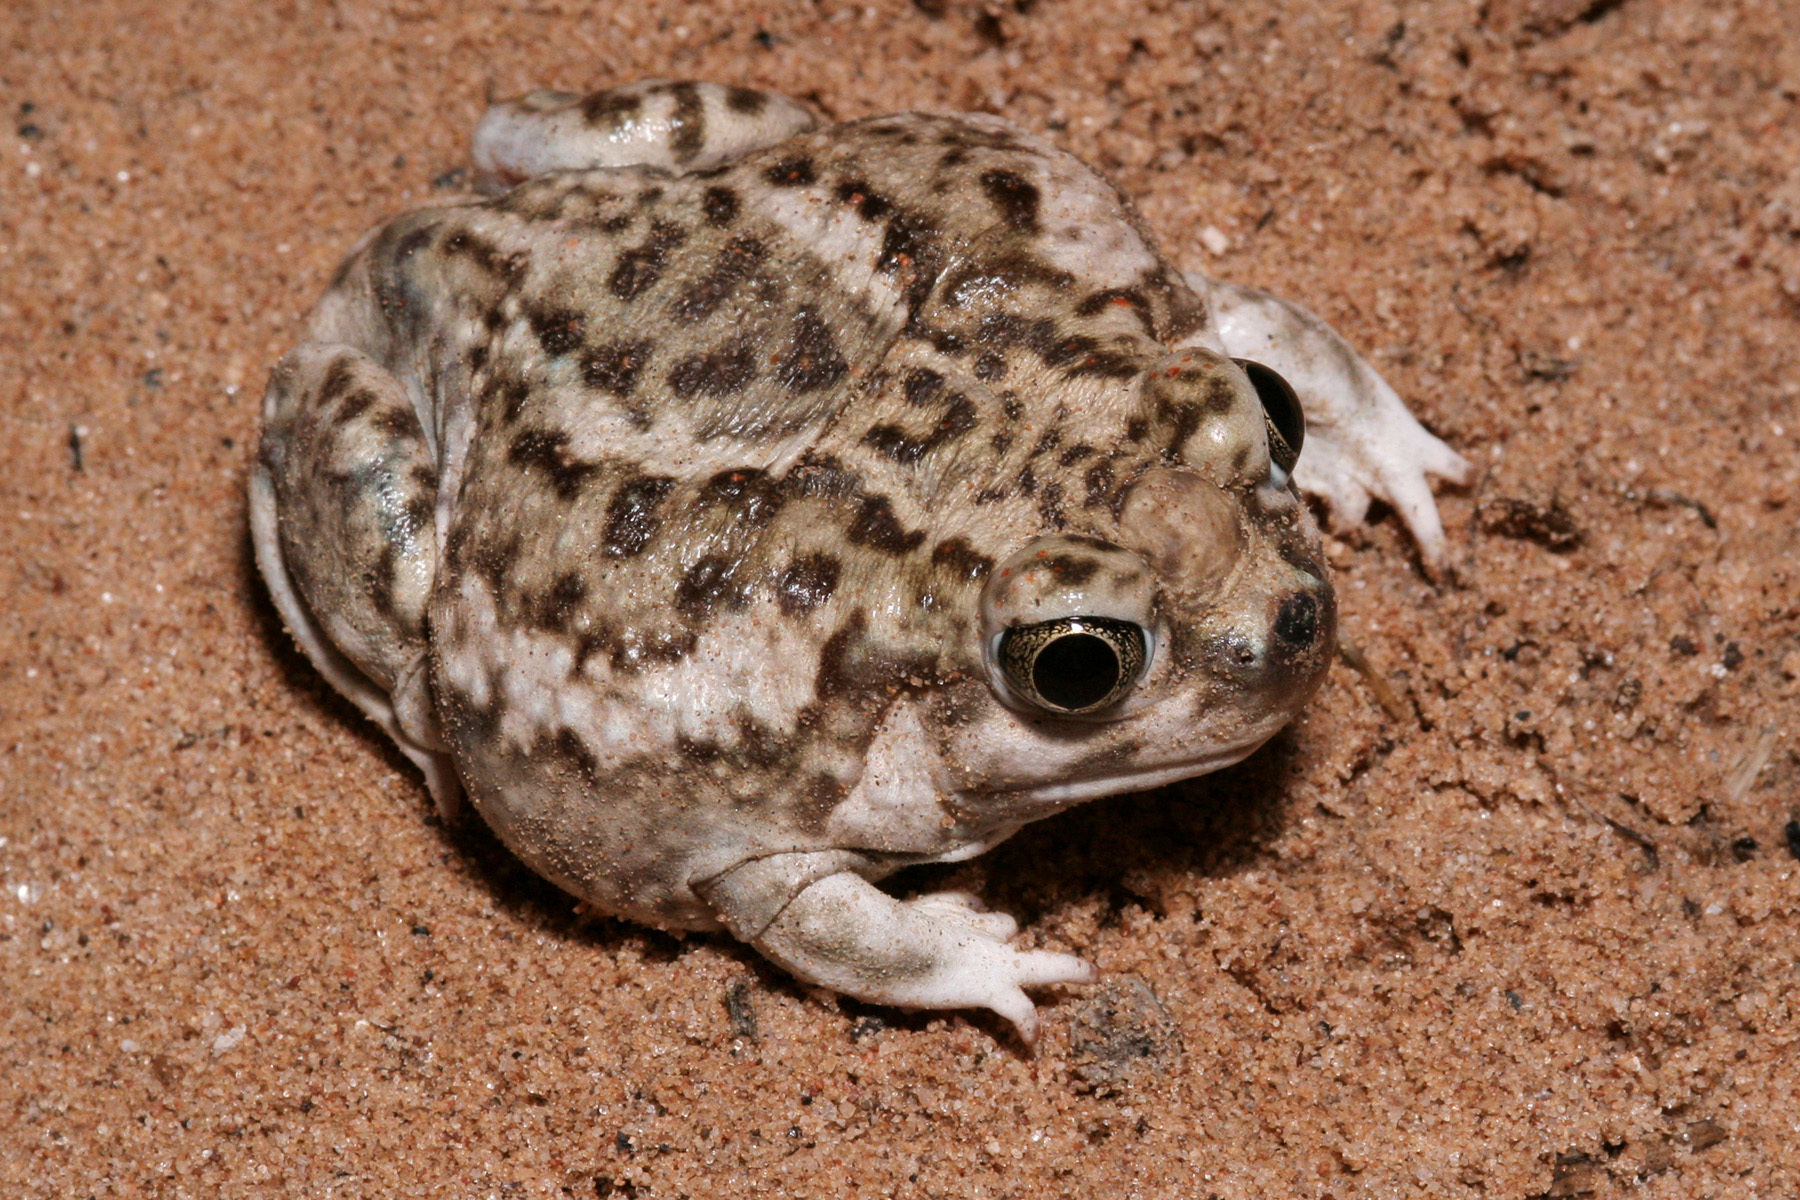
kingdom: Animalia
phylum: Chordata
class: Amphibia
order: Anura
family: Scaphiopodidae
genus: Spea
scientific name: Spea bombifrons
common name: Plains spadefoot
